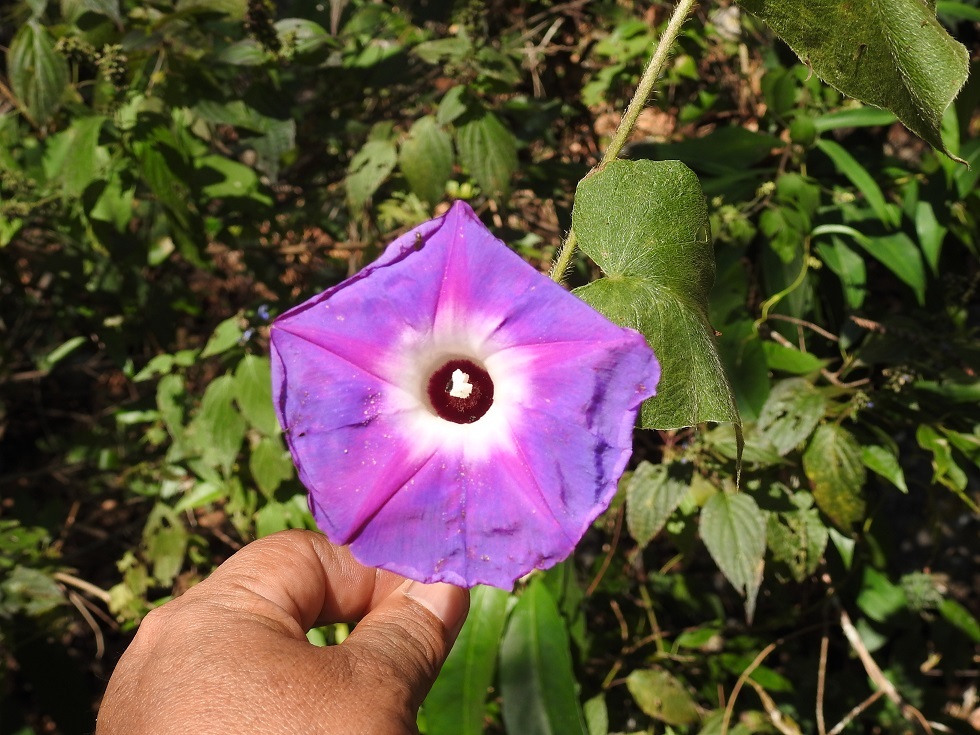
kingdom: Plantae
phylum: Tracheophyta
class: Magnoliopsida
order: Solanales
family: Convolvulaceae
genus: Ipomoea
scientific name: Ipomoea villifera
